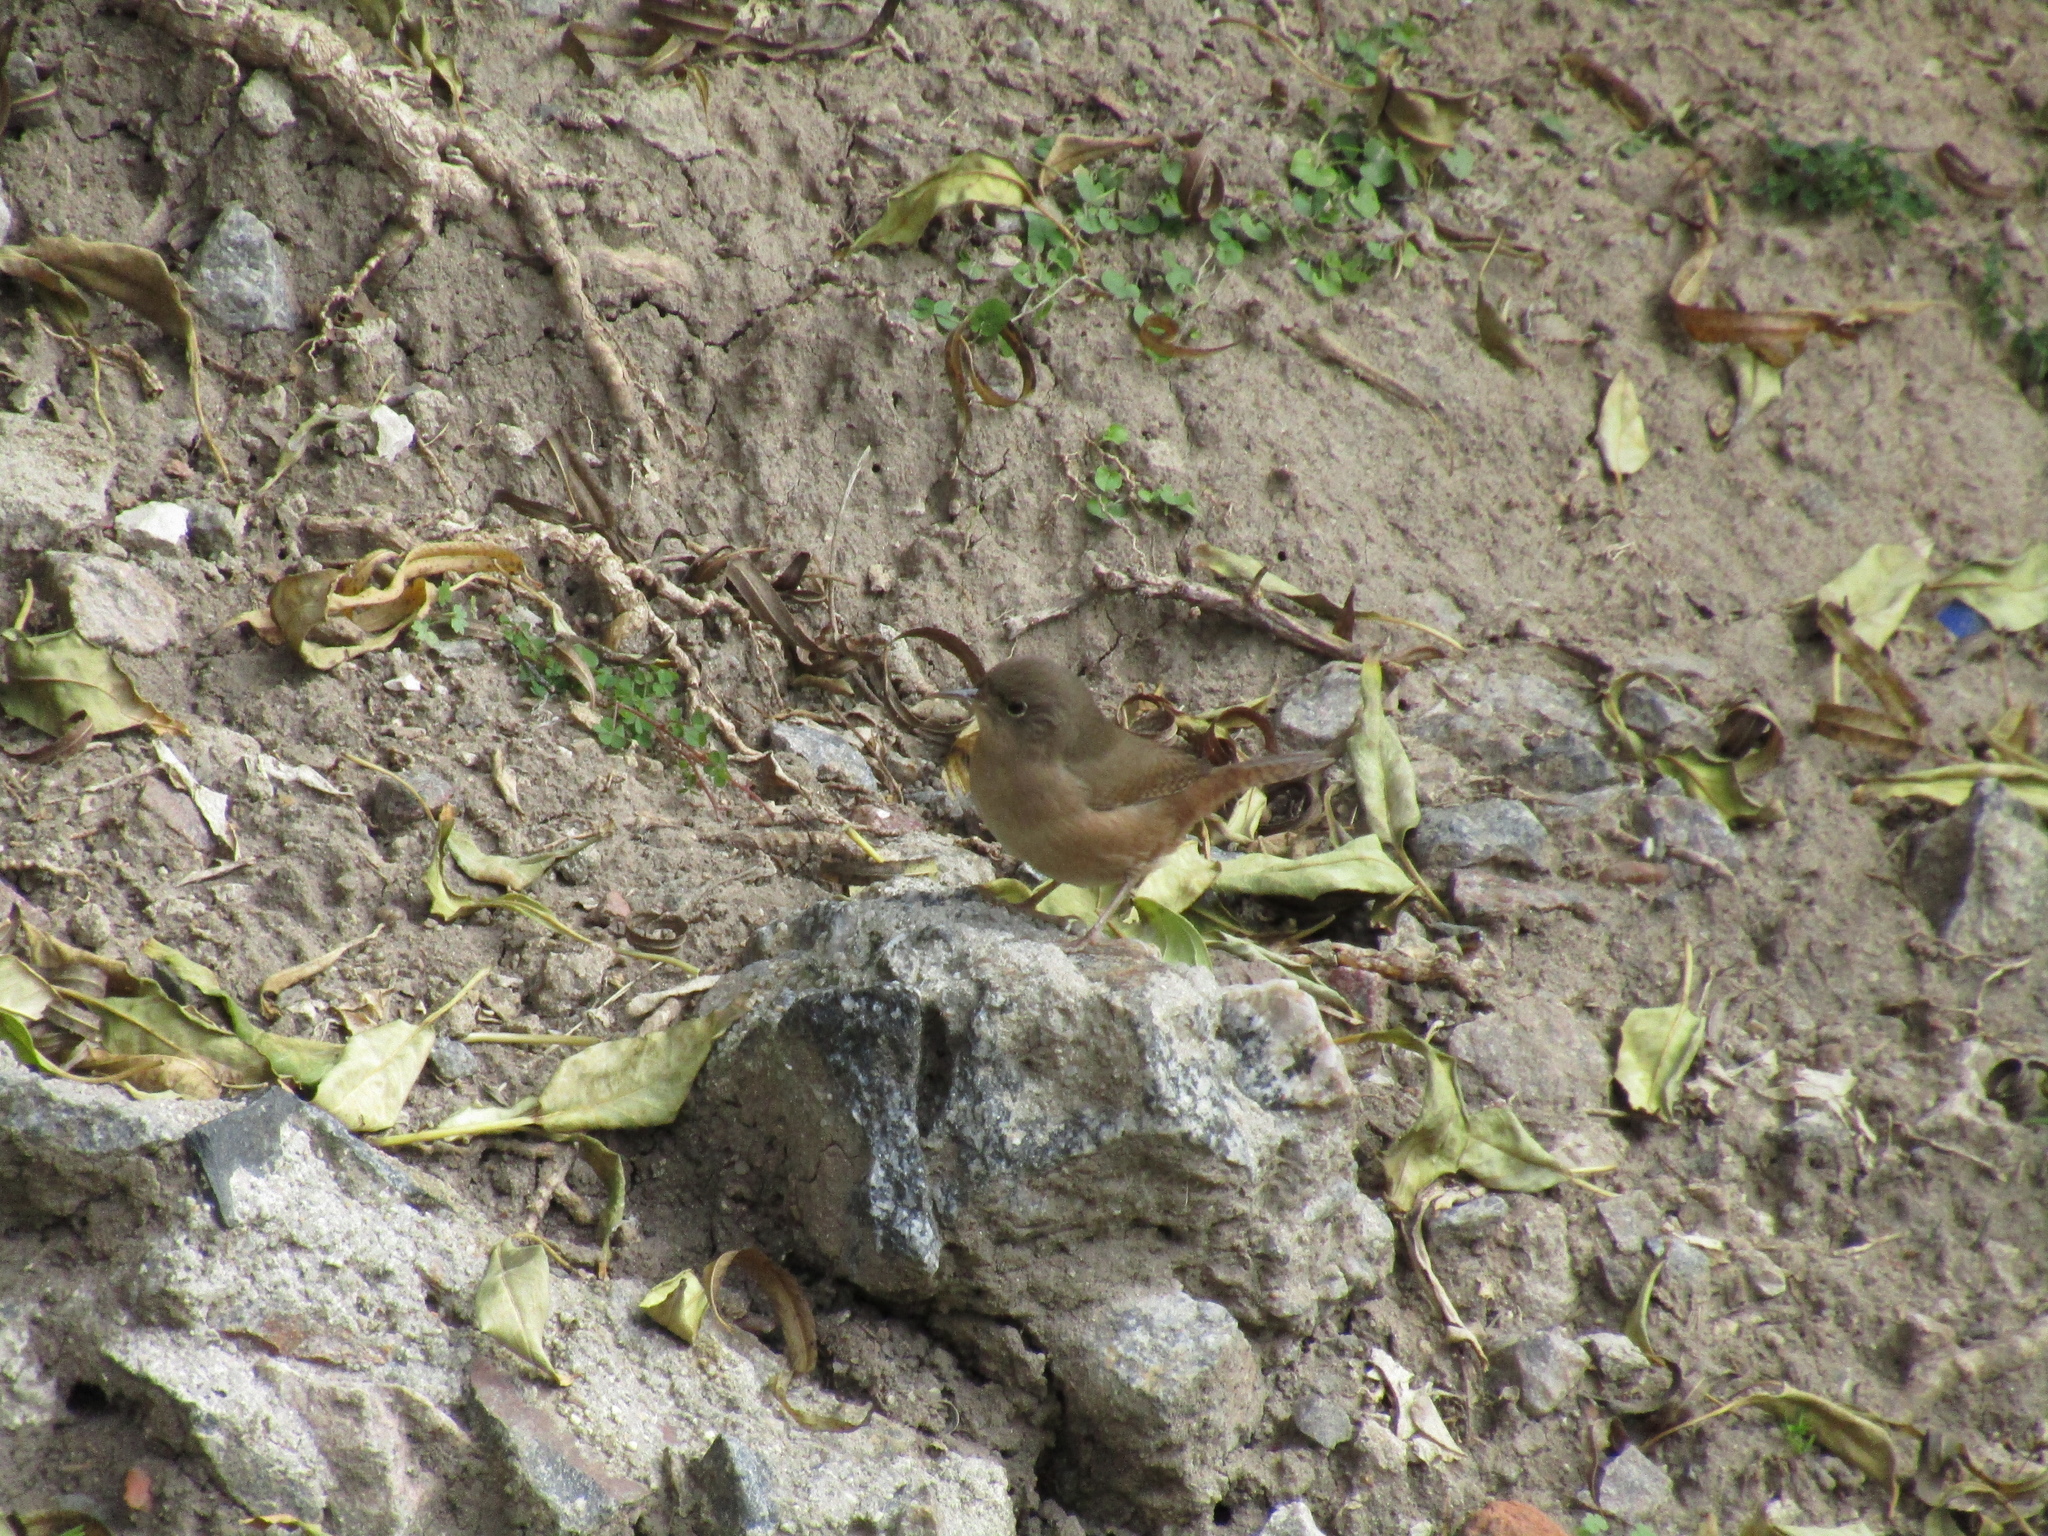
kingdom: Animalia
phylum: Chordata
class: Aves
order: Passeriformes
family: Troglodytidae
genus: Troglodytes
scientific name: Troglodytes aedon
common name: House wren
